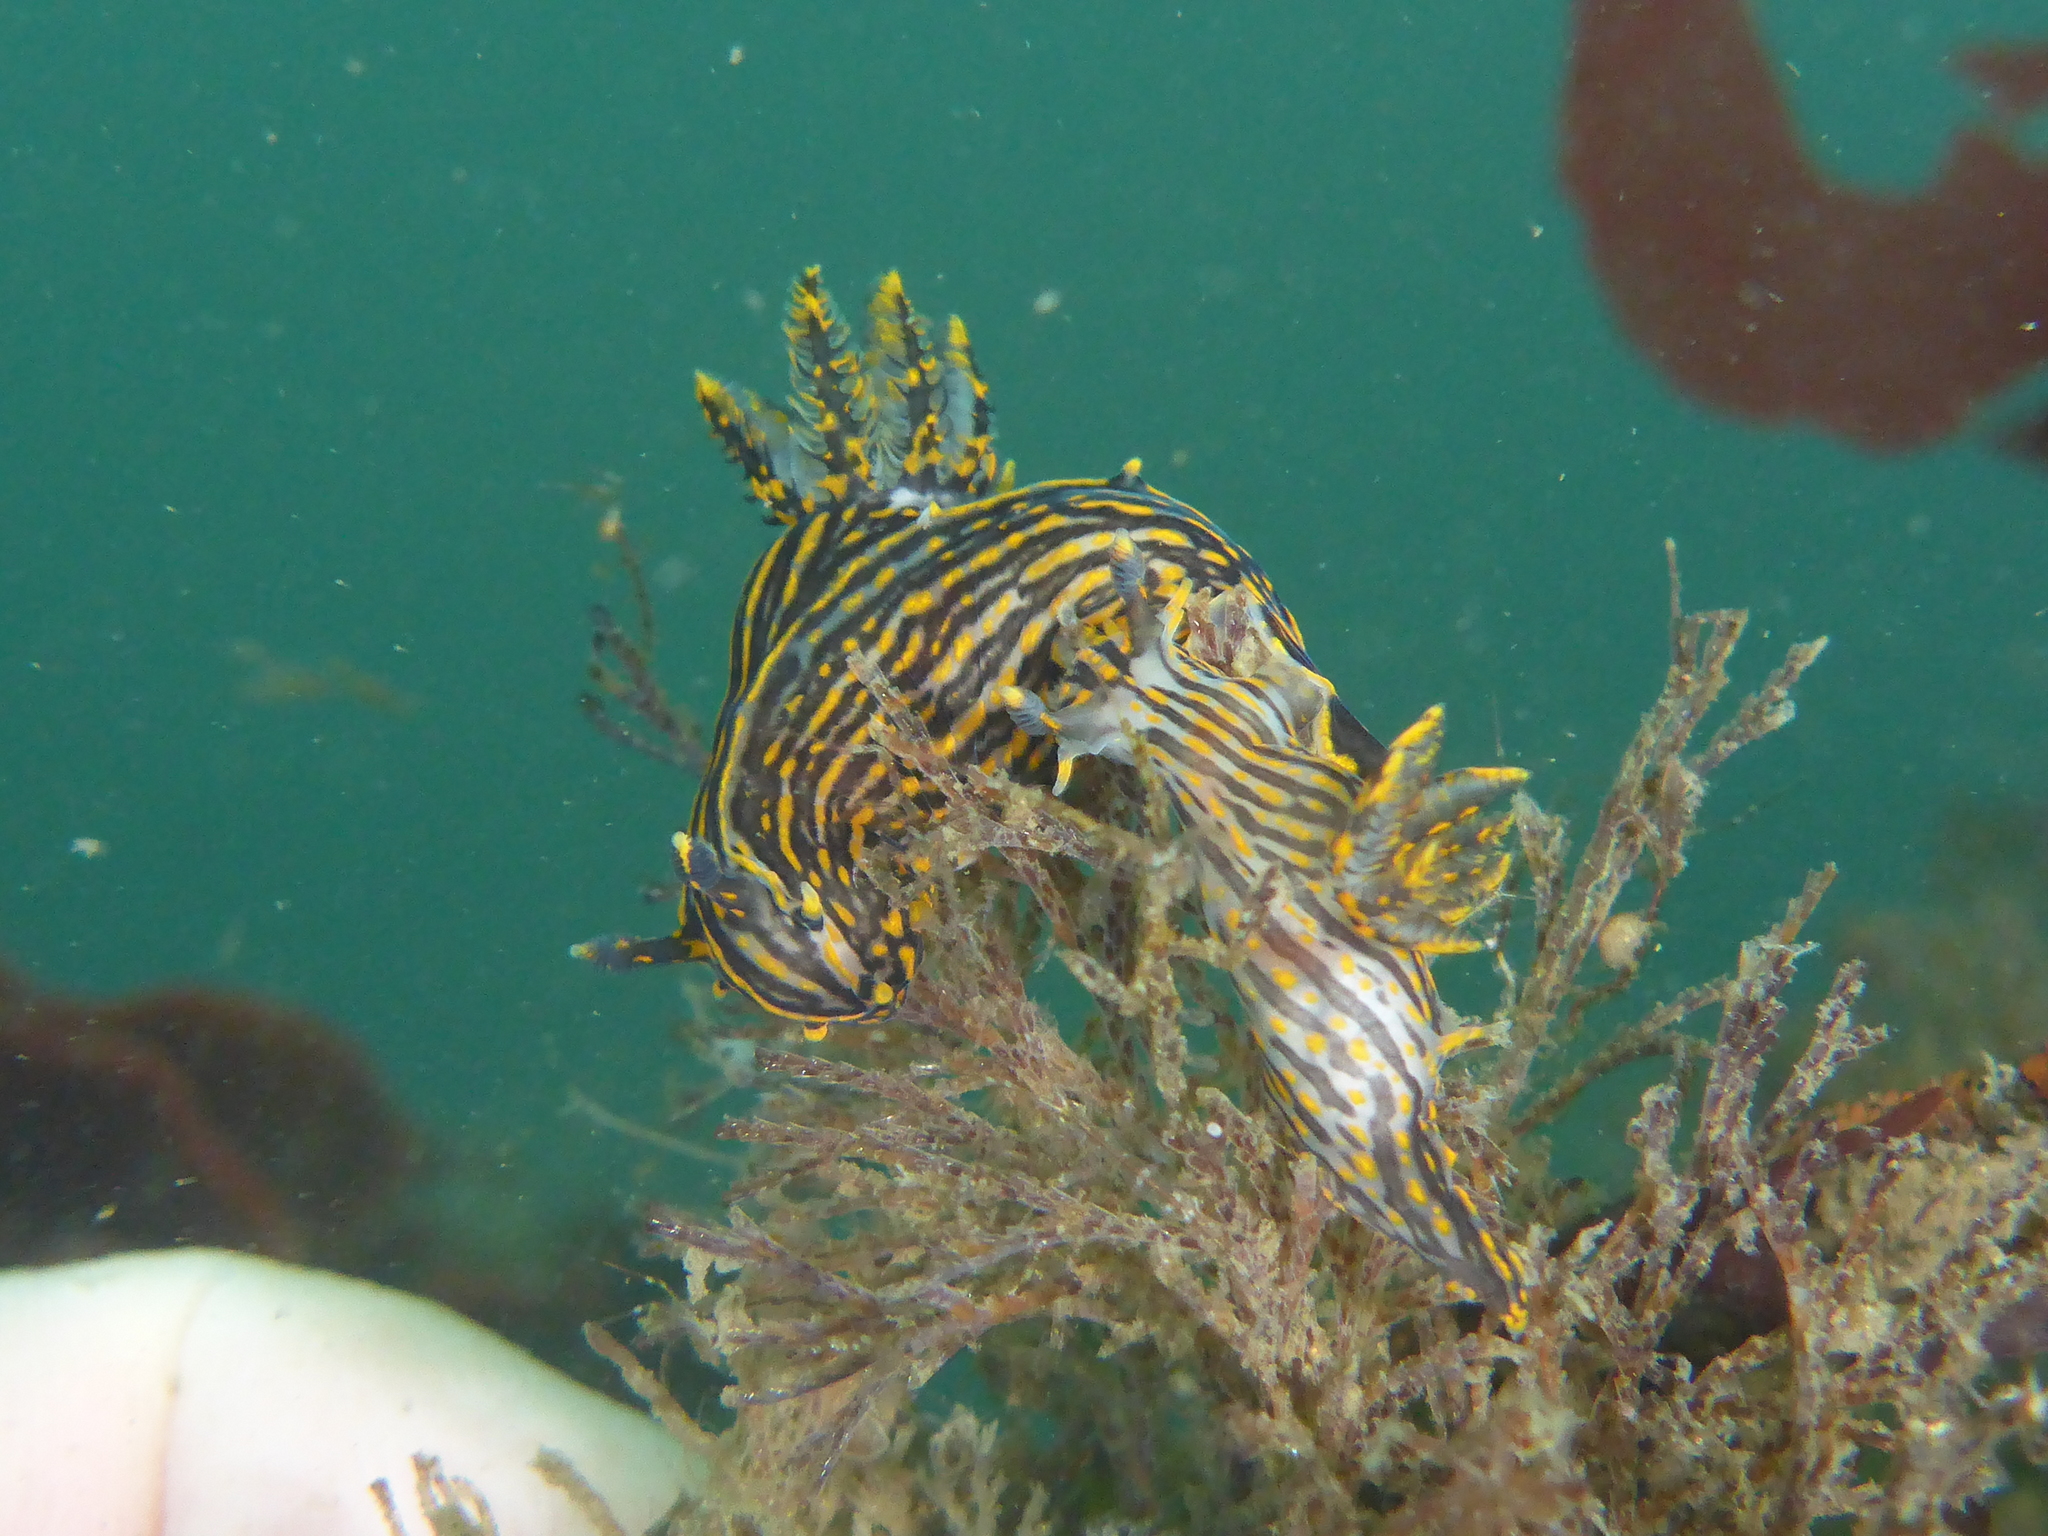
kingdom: Animalia
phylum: Mollusca
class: Gastropoda
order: Nudibranchia
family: Polyceridae
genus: Polycera
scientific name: Polycera atra
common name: Orange-spike polycera
